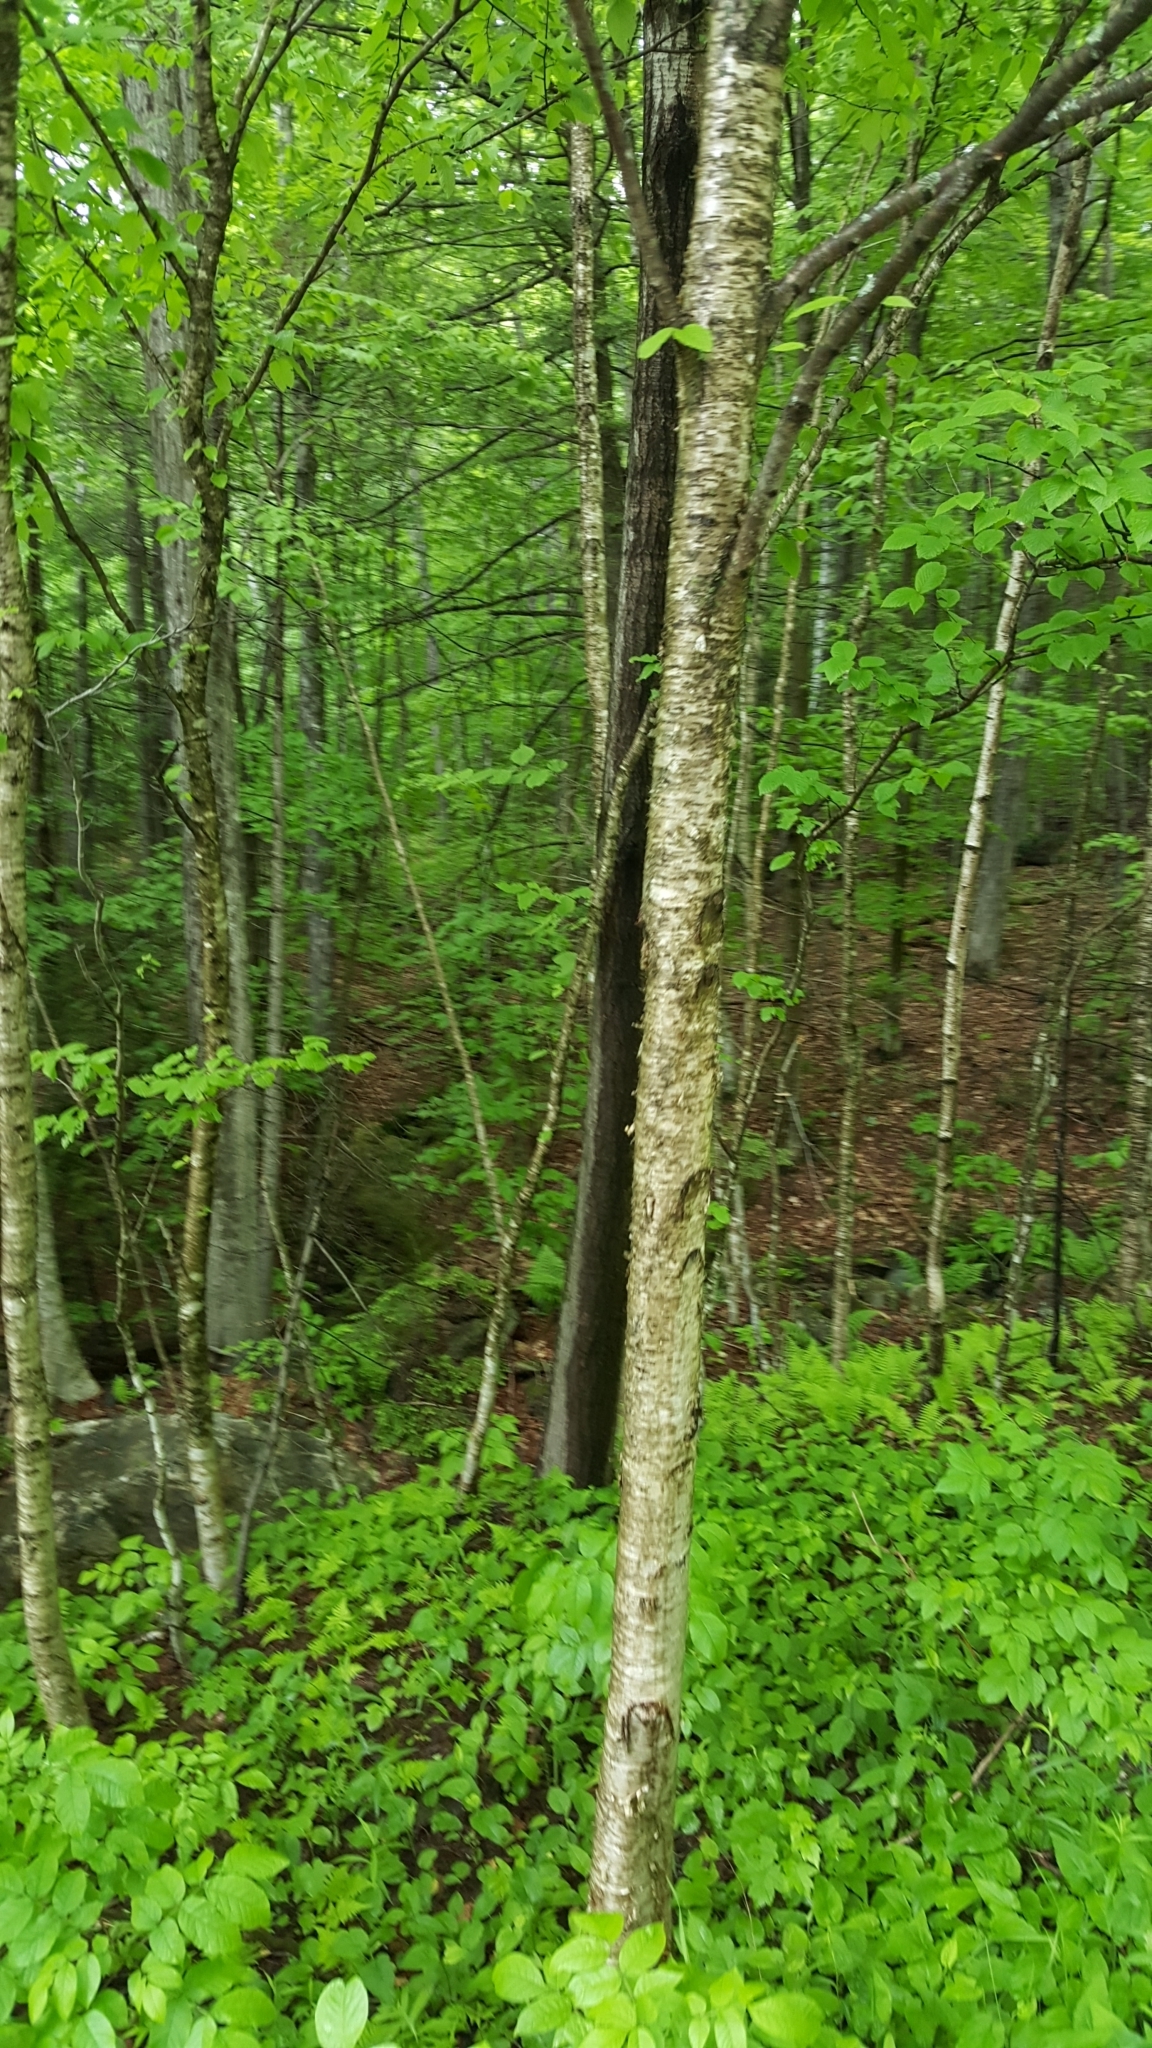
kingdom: Plantae
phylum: Tracheophyta
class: Magnoliopsida
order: Fagales
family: Betulaceae
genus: Betula
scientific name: Betula alleghaniensis
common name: Yellow birch
